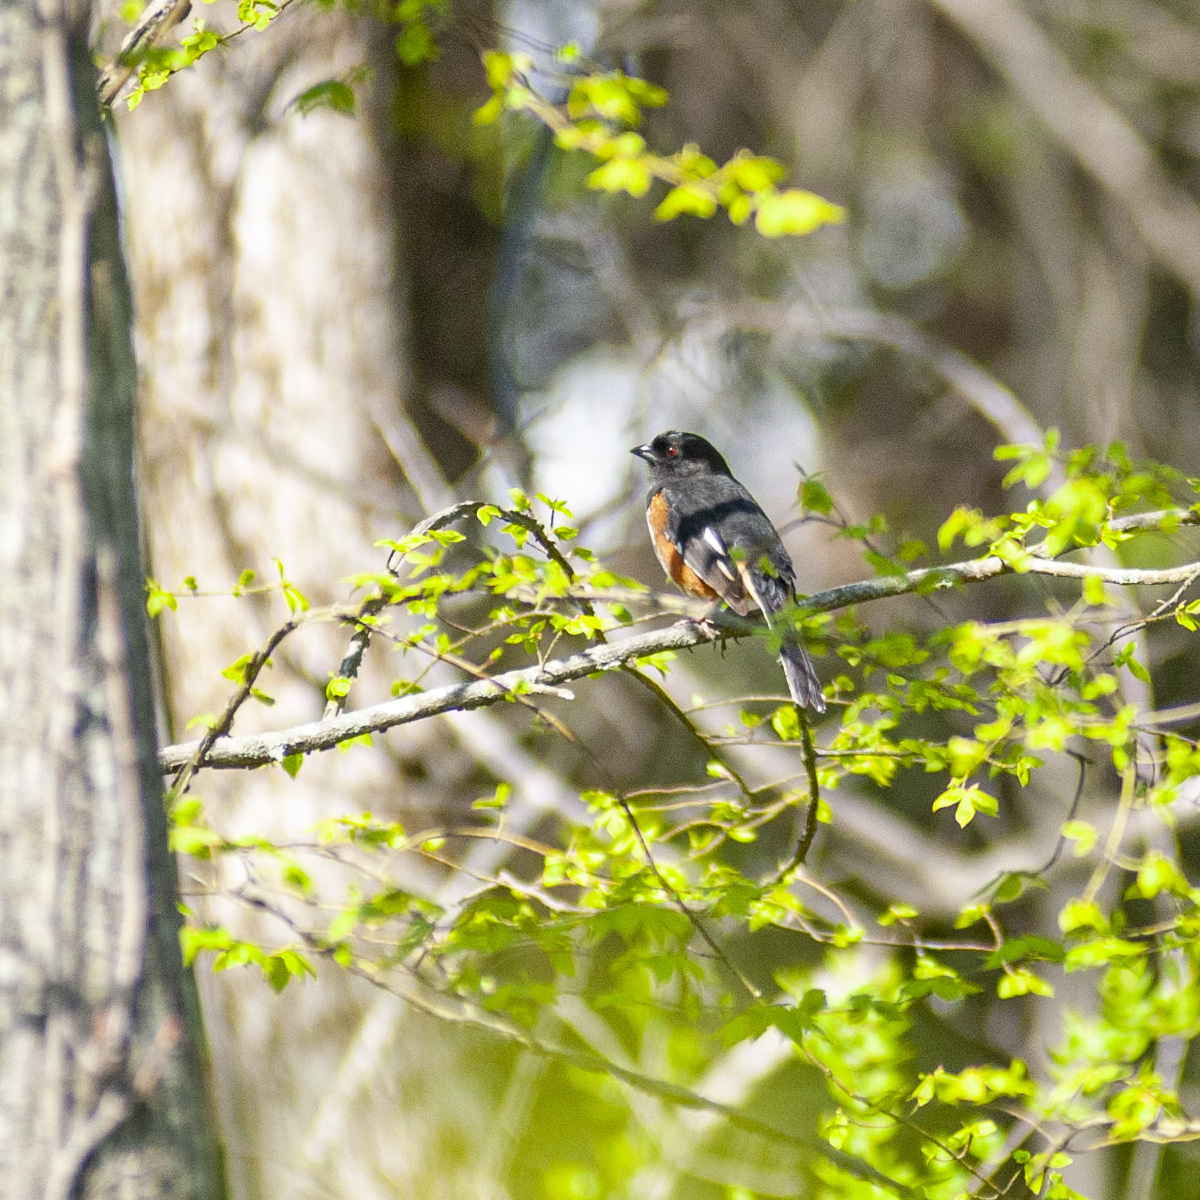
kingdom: Animalia
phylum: Chordata
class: Aves
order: Passeriformes
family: Passerellidae
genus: Pipilo
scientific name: Pipilo erythrophthalmus
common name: Eastern towhee
